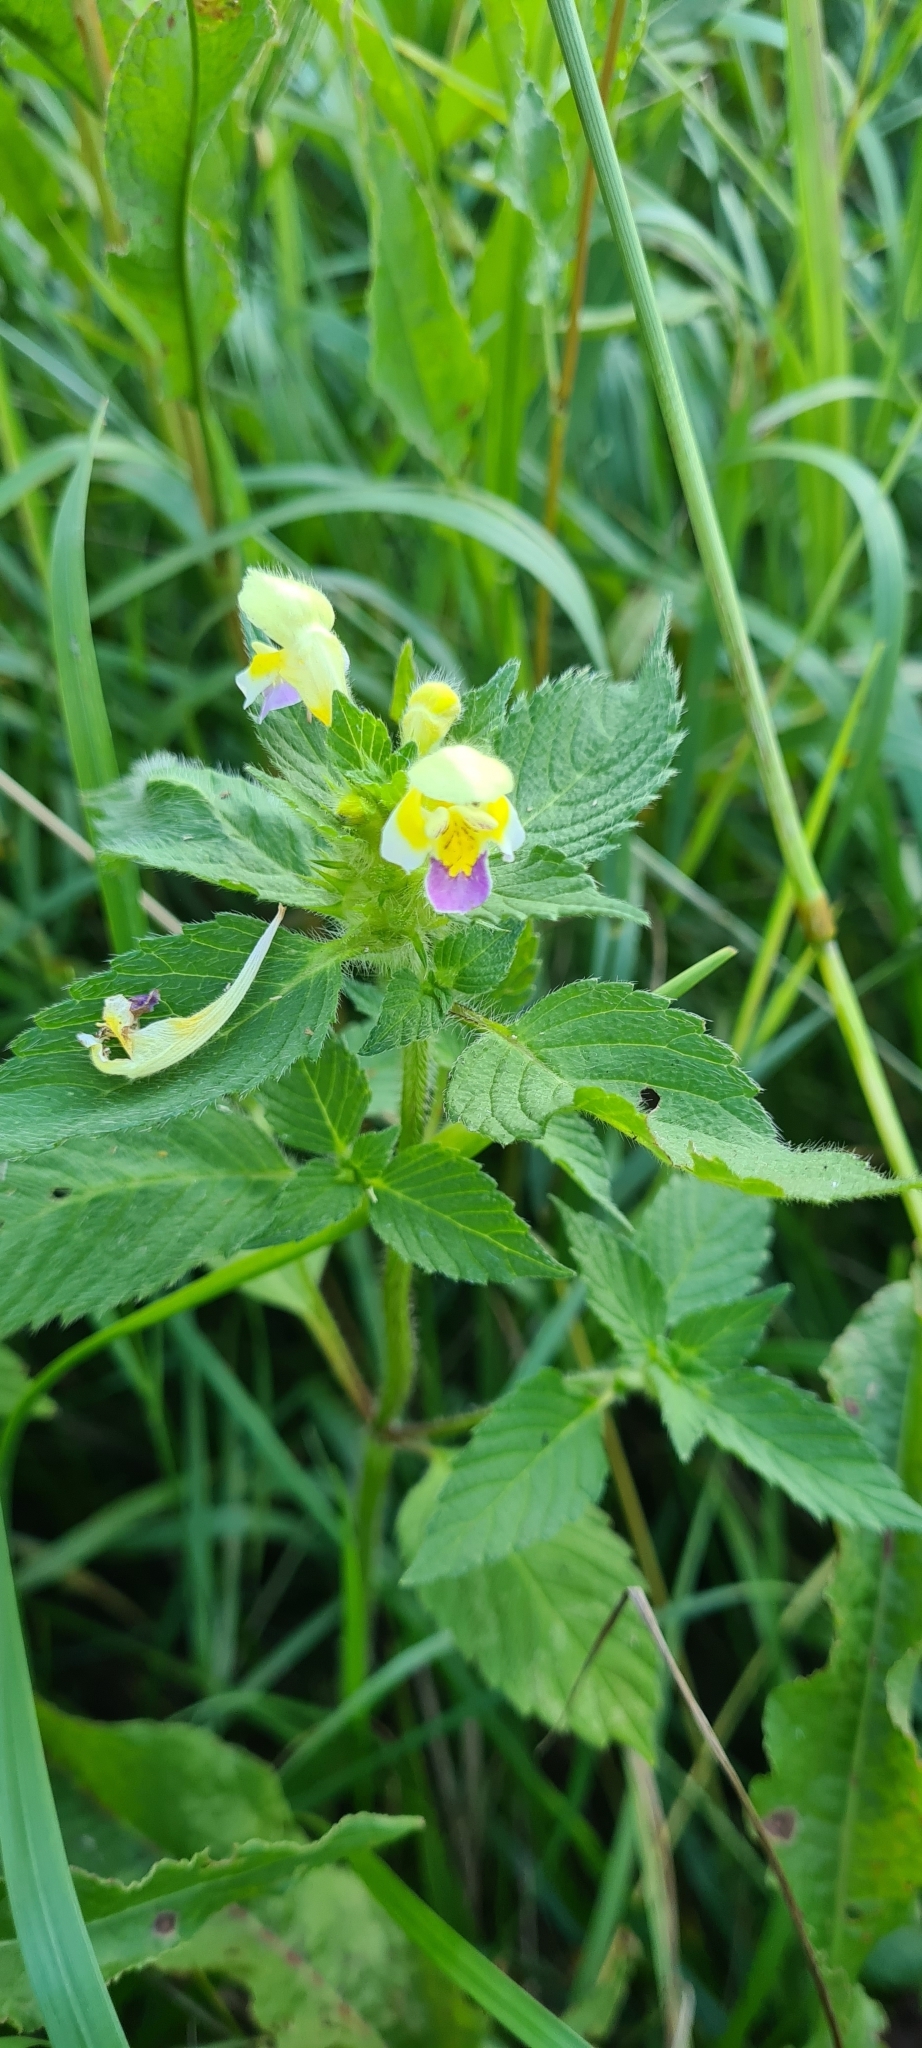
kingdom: Plantae
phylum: Tracheophyta
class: Magnoliopsida
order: Lamiales
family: Lamiaceae
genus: Galeopsis
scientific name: Galeopsis speciosa
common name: Large-flowered hemp-nettle
